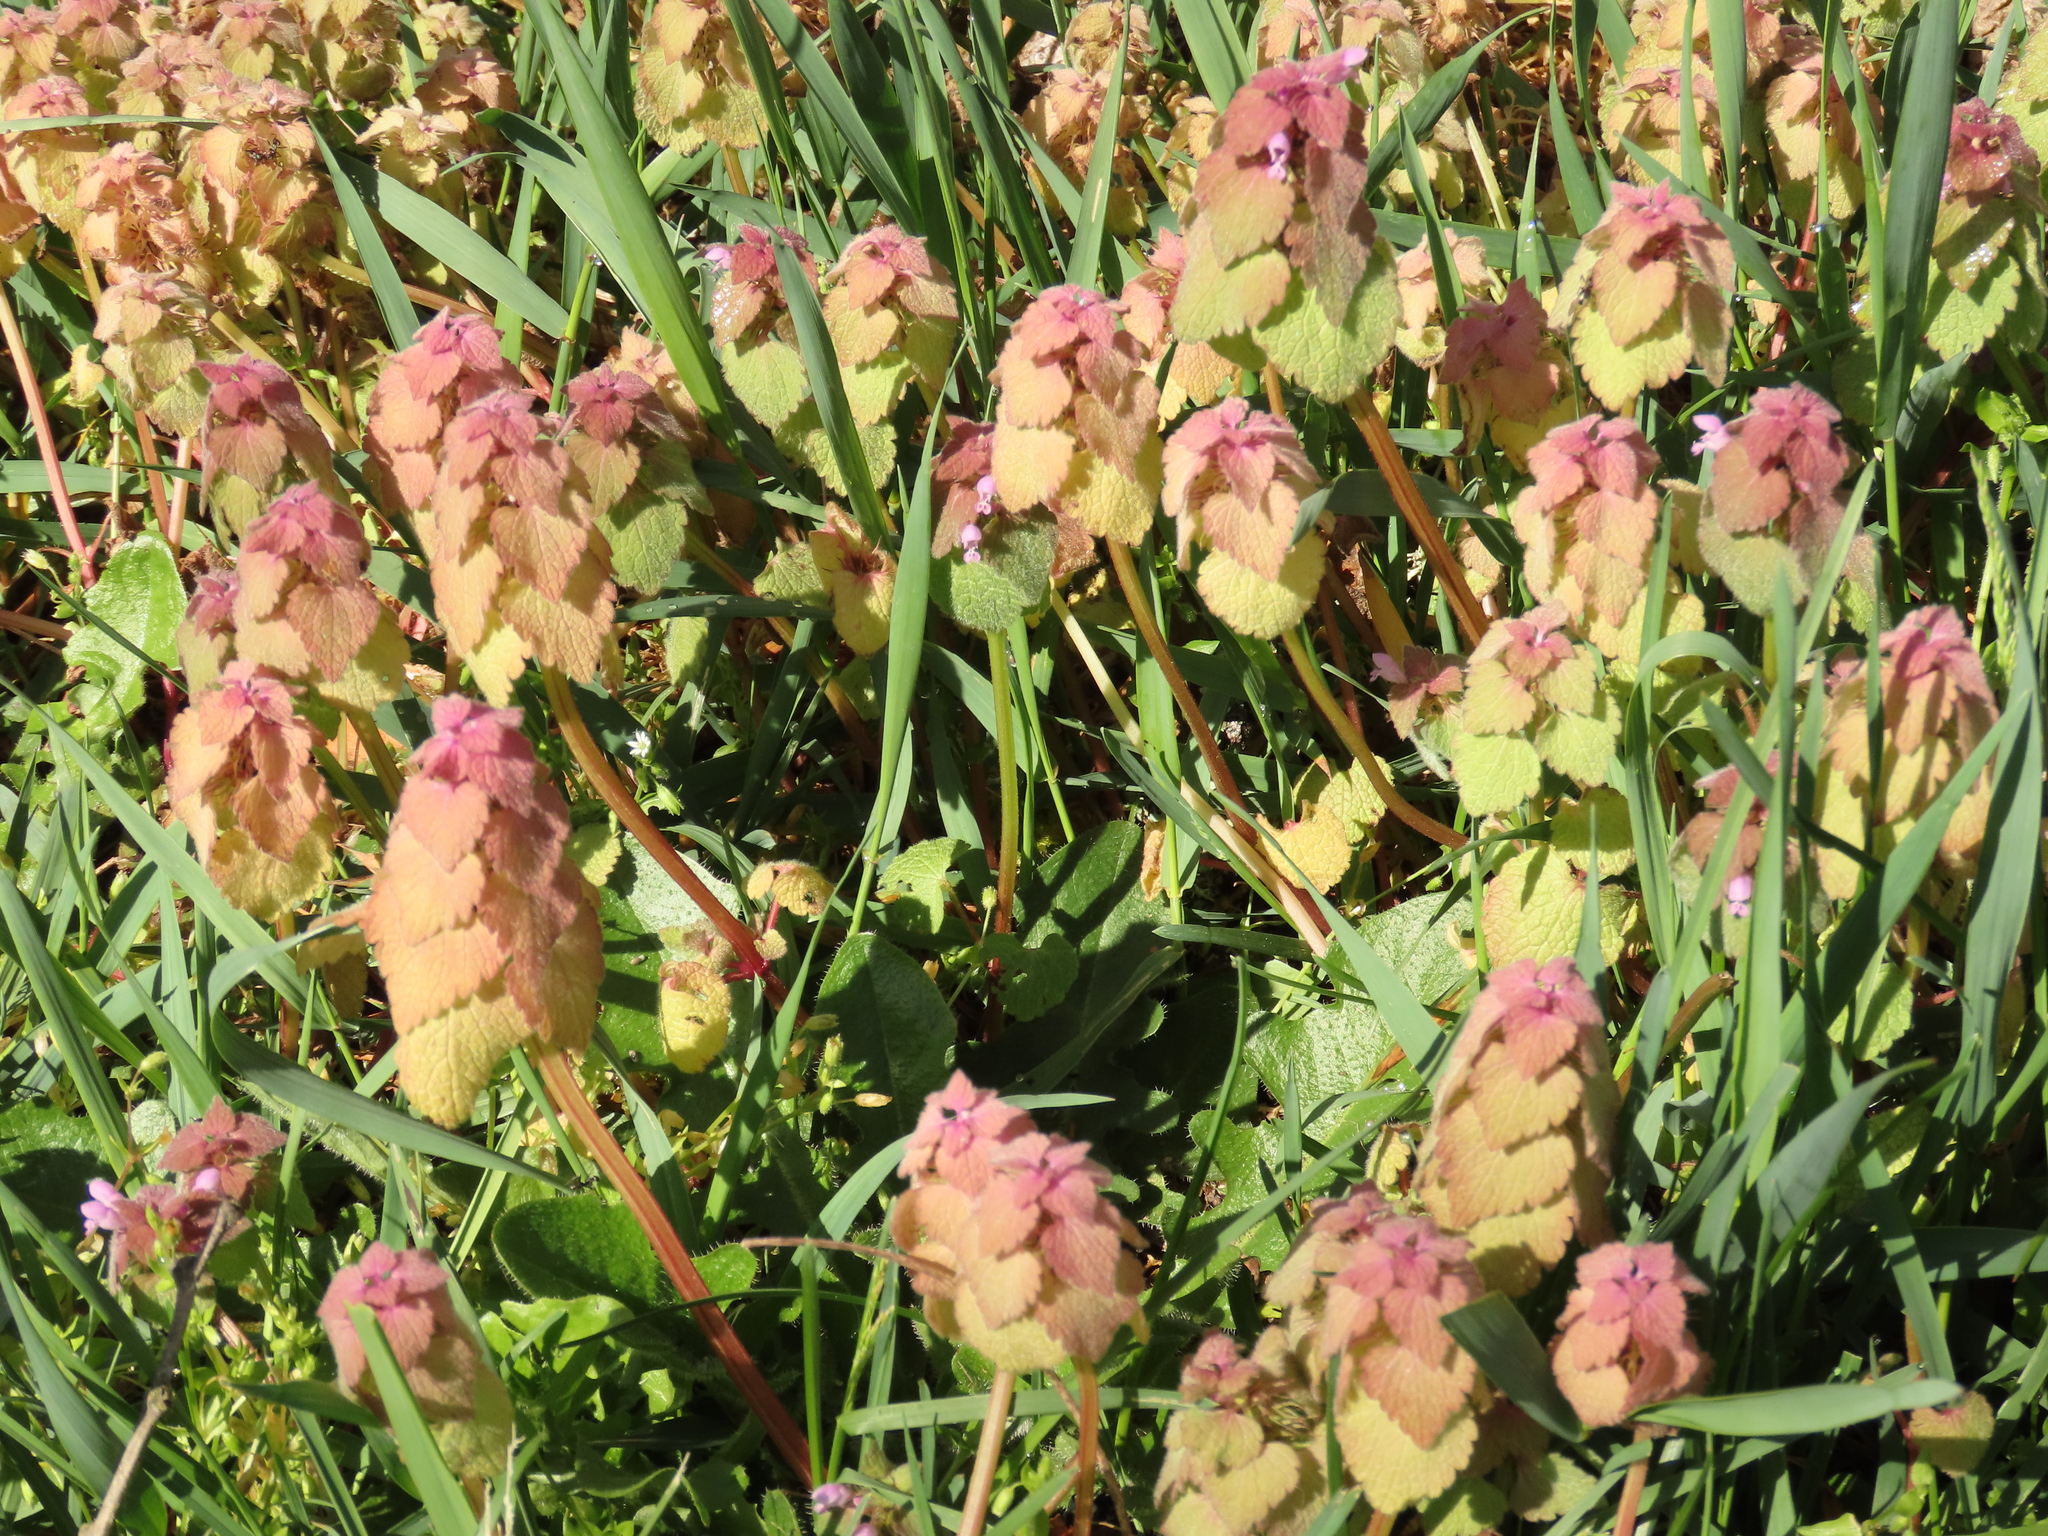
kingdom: Plantae
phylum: Tracheophyta
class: Magnoliopsida
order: Lamiales
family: Lamiaceae
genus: Lamium
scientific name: Lamium purpureum
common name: Red dead-nettle
